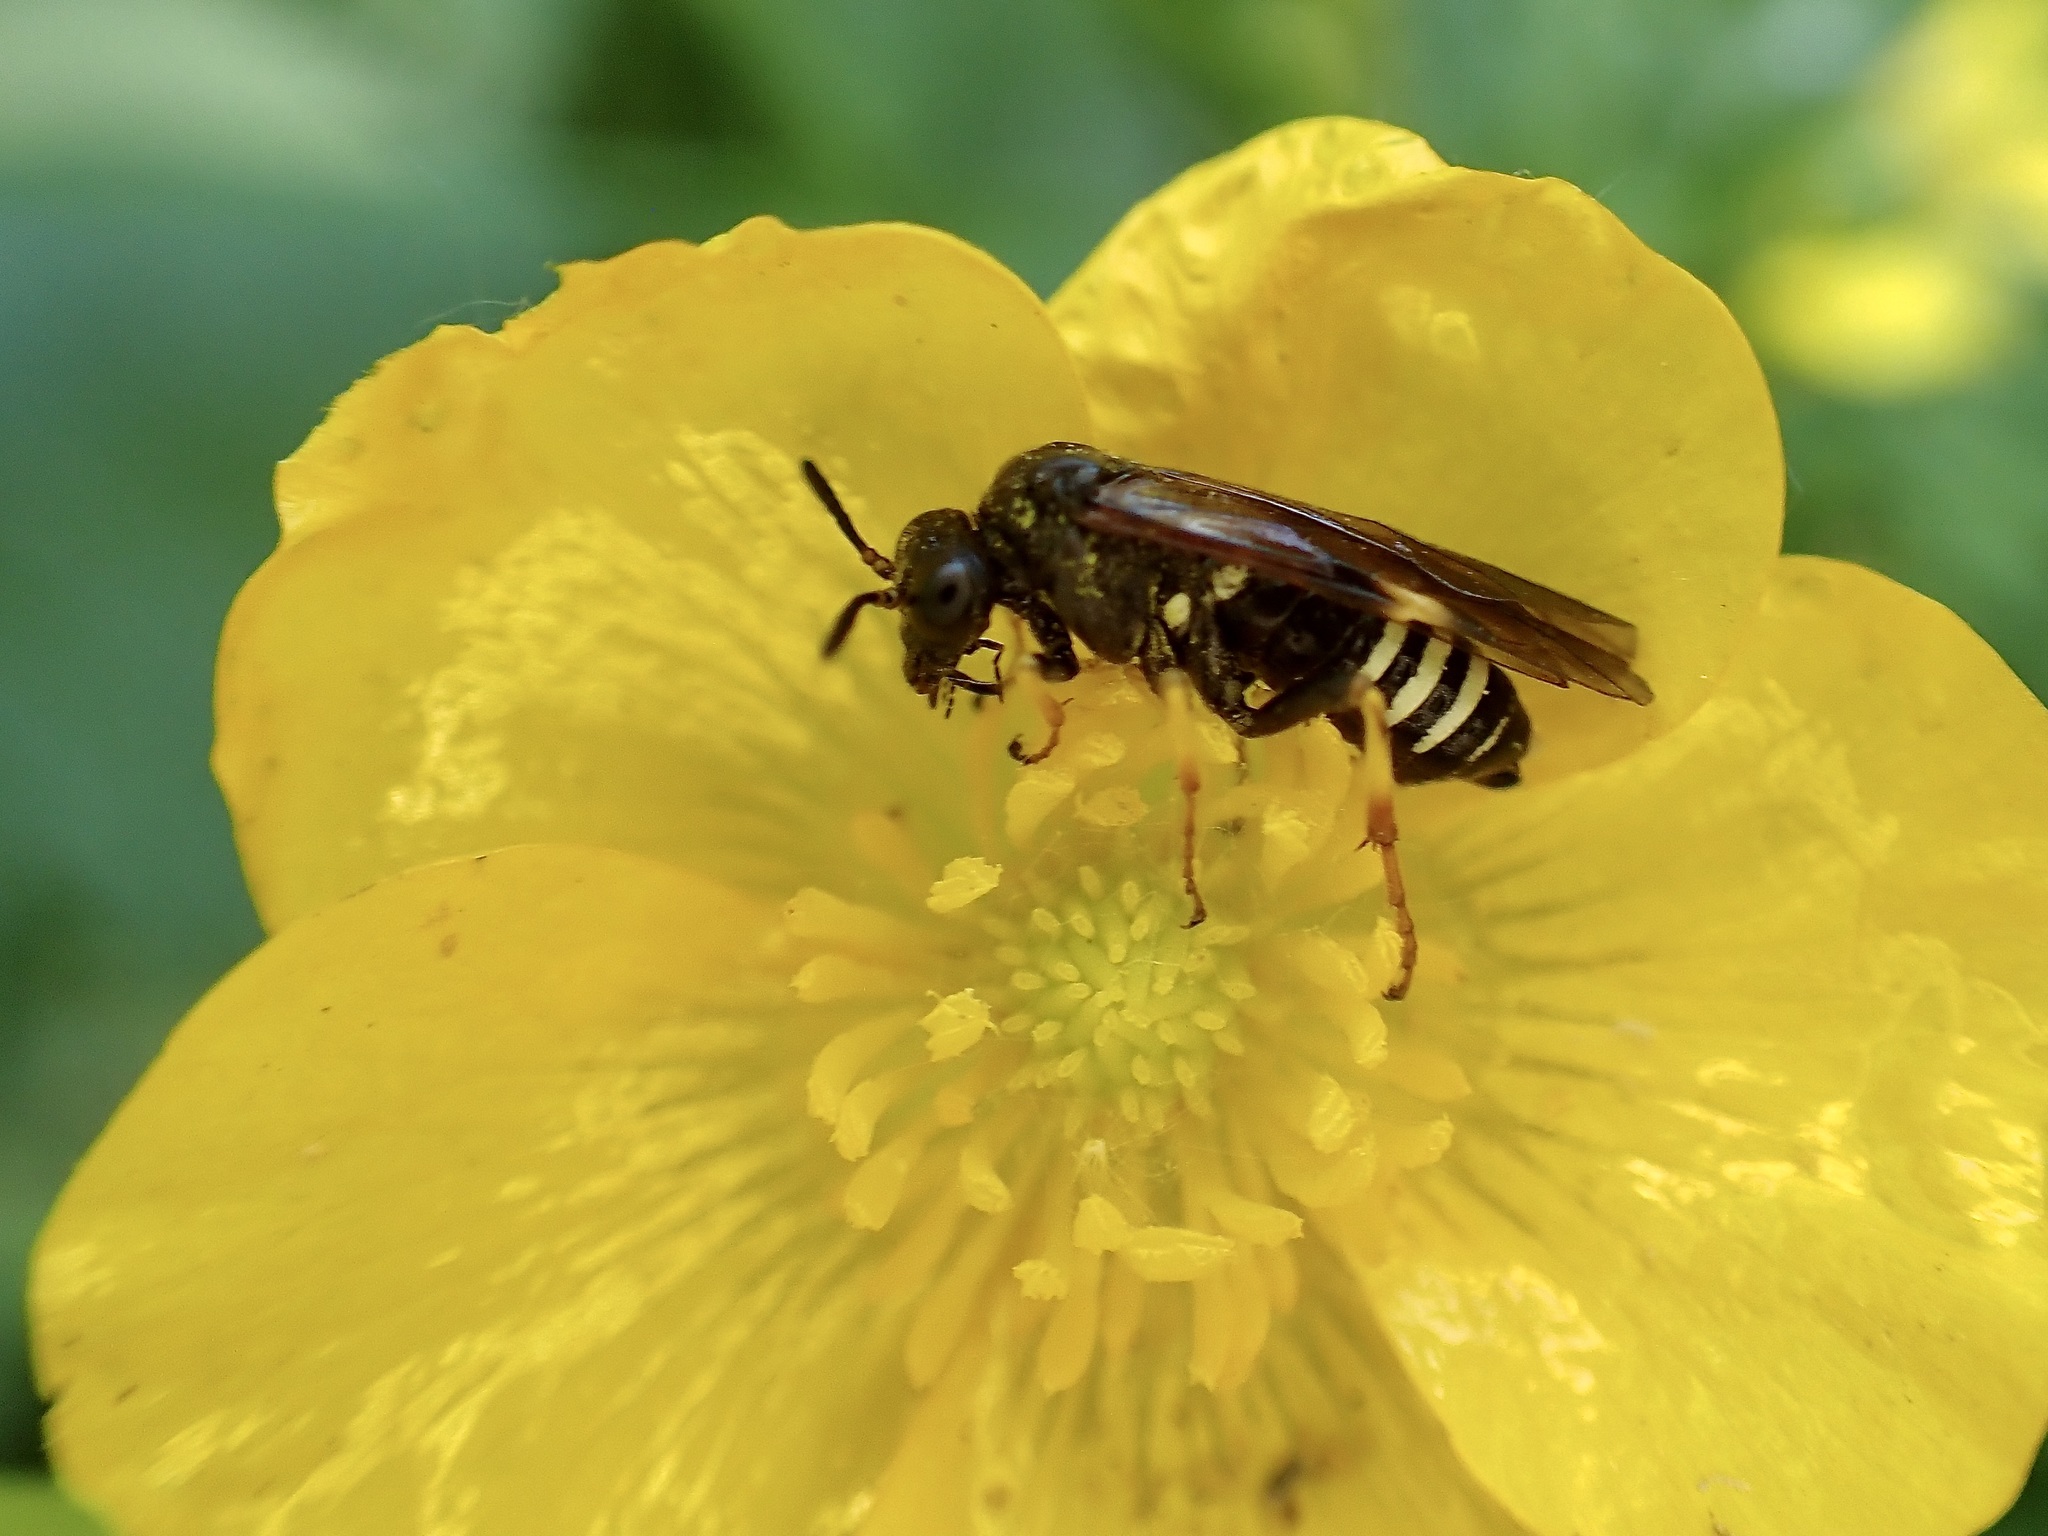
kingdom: Animalia
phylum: Arthropoda
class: Insecta
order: Hymenoptera
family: Tenthredinidae
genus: Tenthredo
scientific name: Tenthredo koehleri
